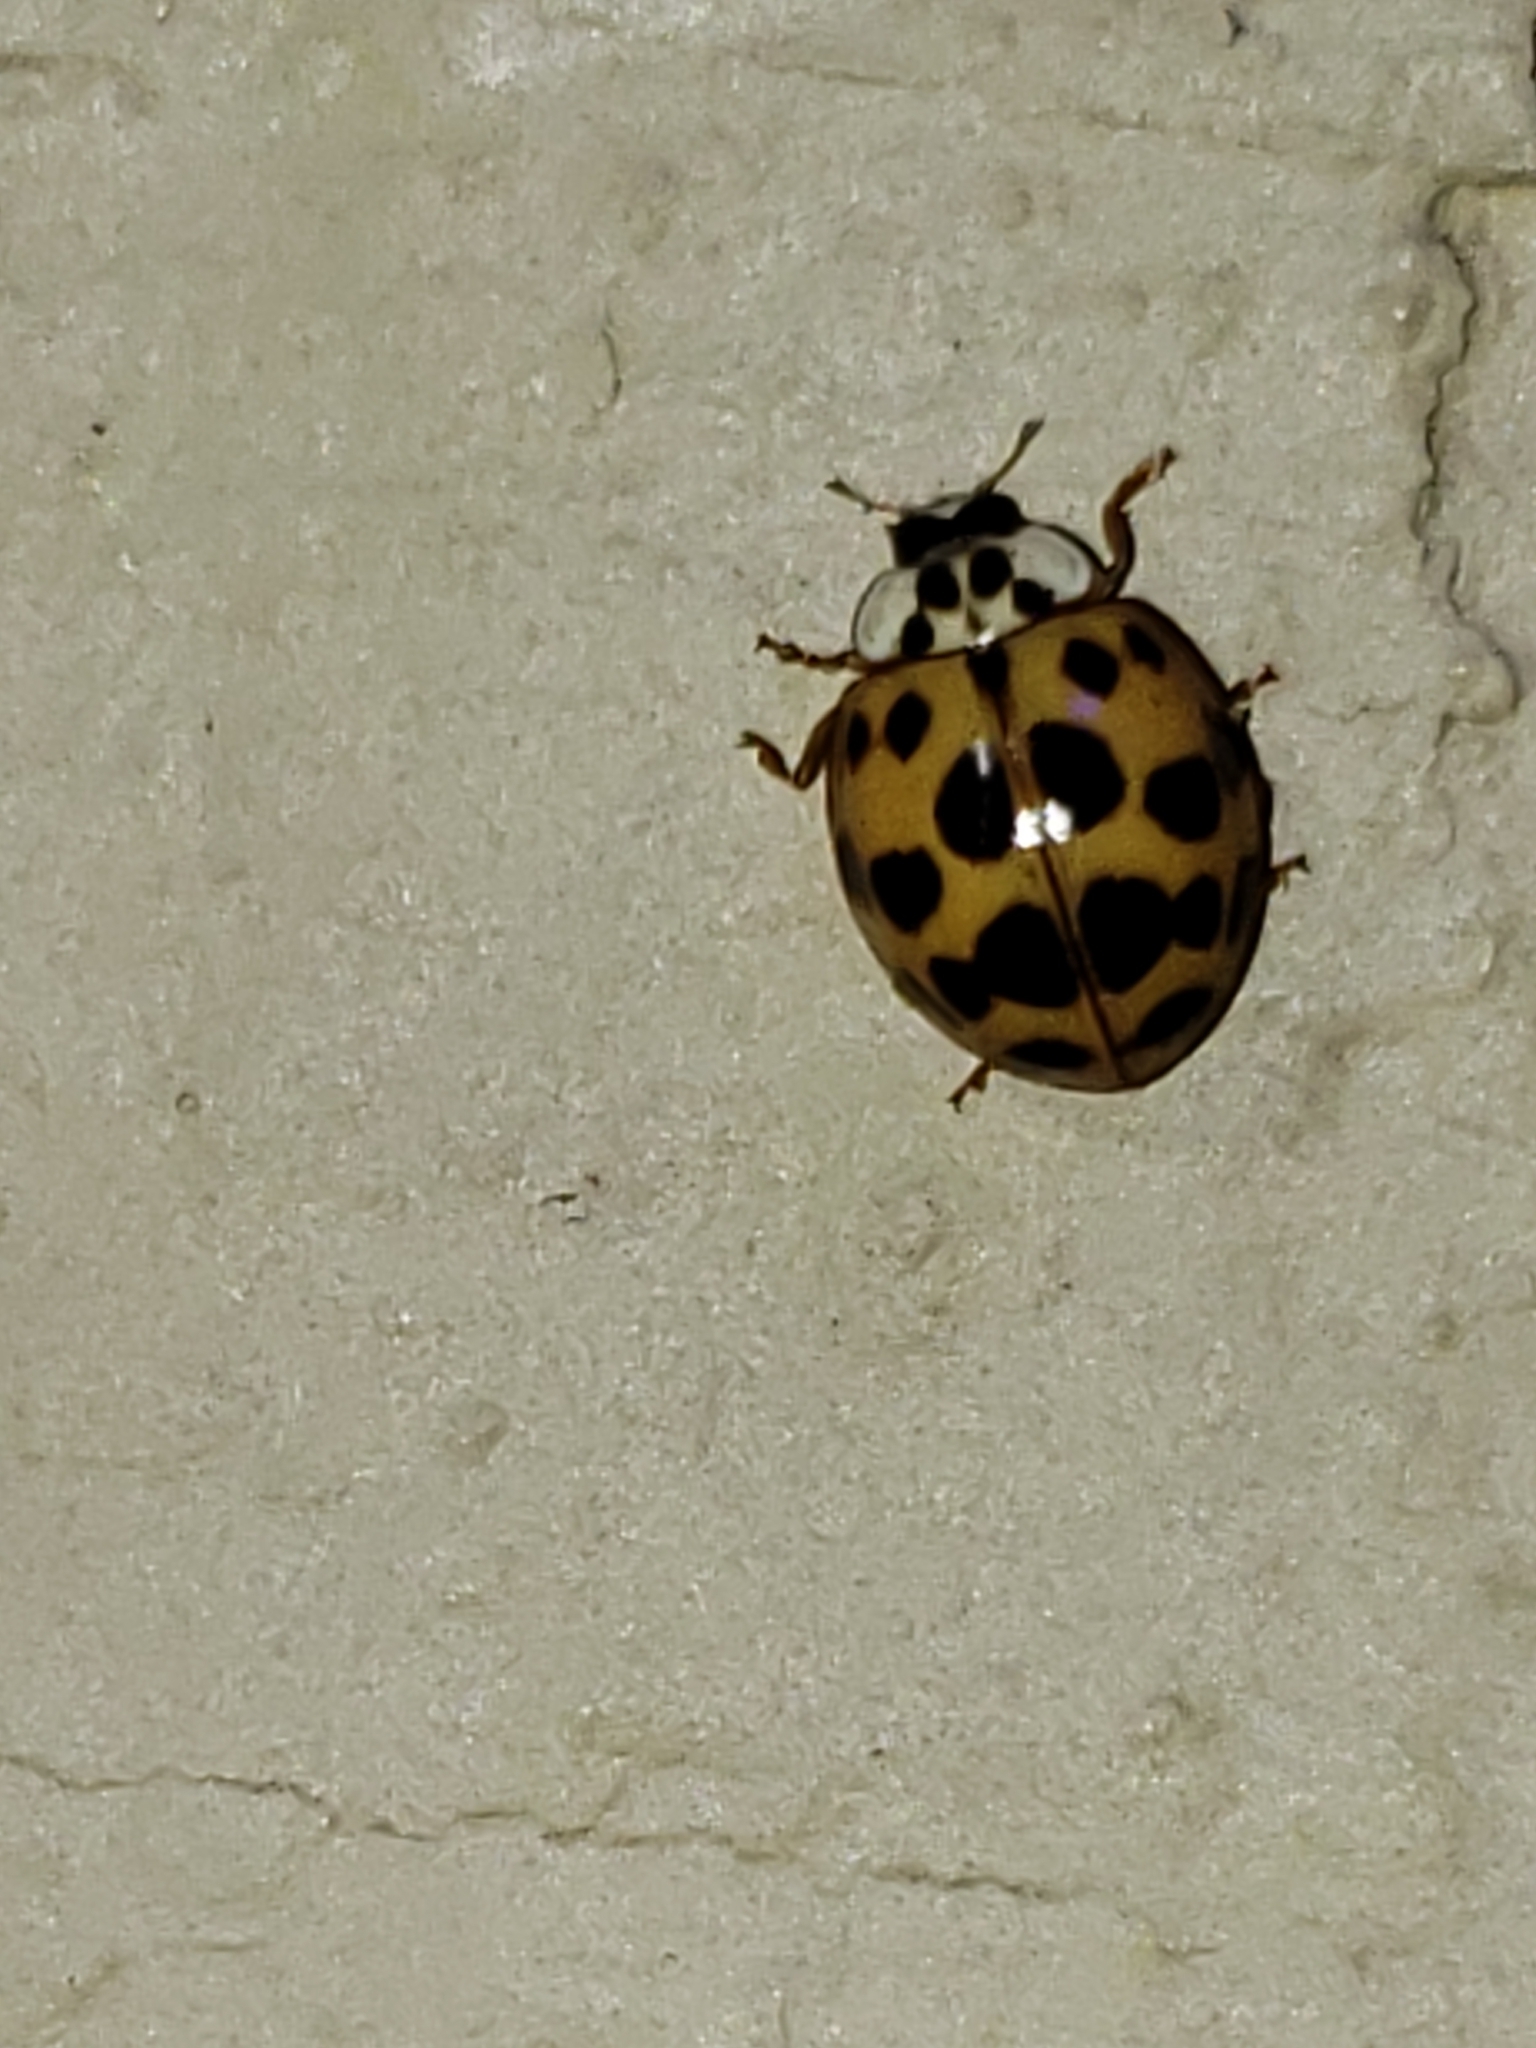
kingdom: Animalia
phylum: Arthropoda
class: Insecta
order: Coleoptera
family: Coccinellidae
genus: Harmonia
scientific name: Harmonia axyridis
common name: Harlequin ladybird
